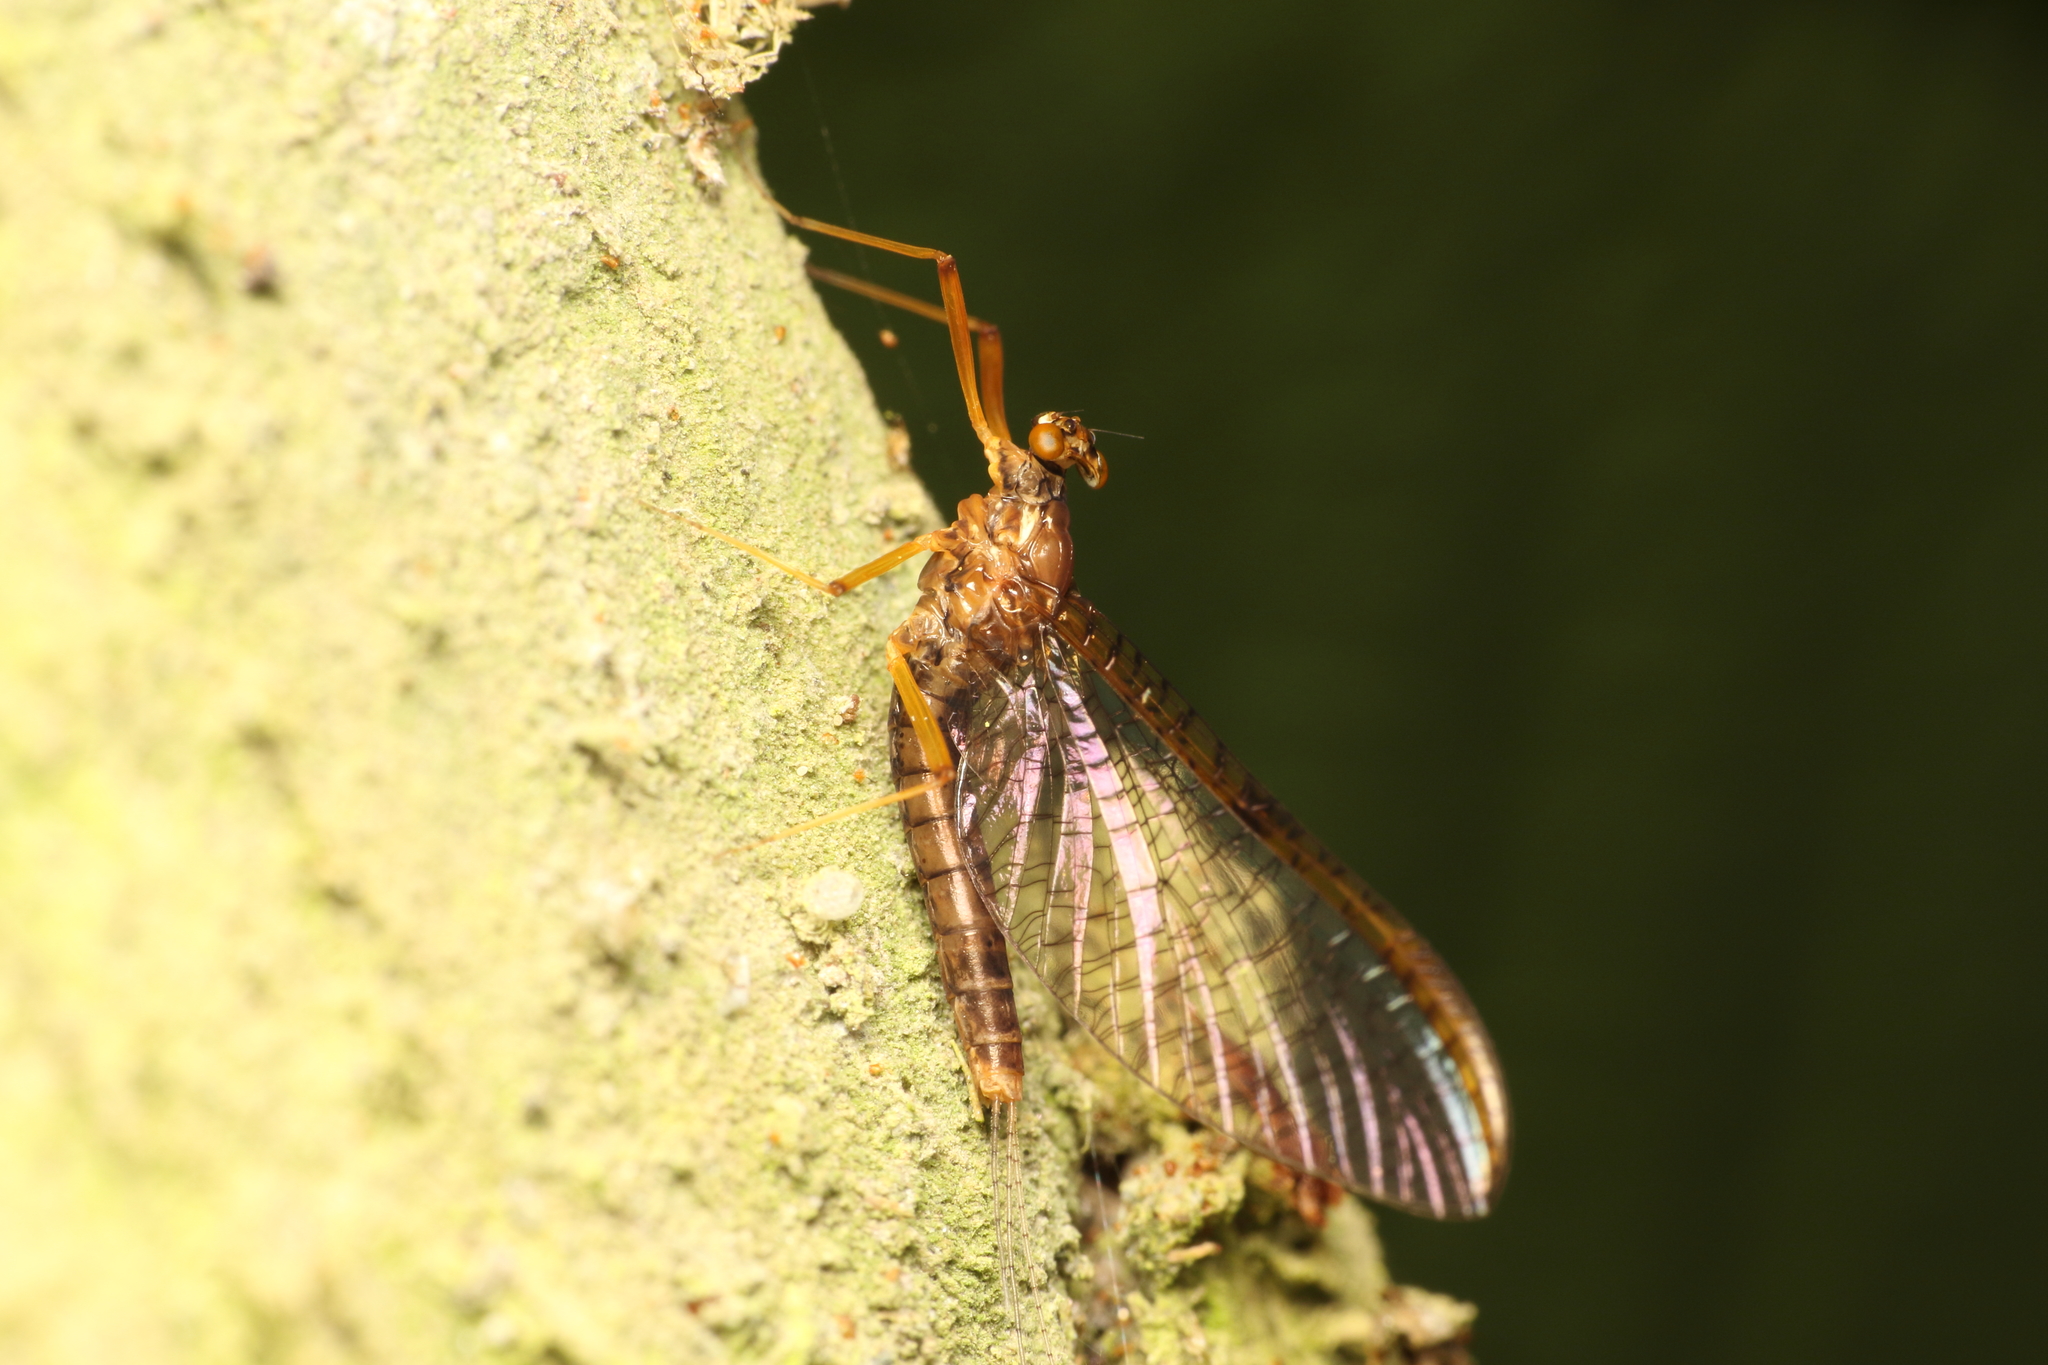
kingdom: Animalia
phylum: Arthropoda
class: Insecta
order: Ephemeroptera
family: Leptophlebiidae
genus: Zephlebia
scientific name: Zephlebia dentata
